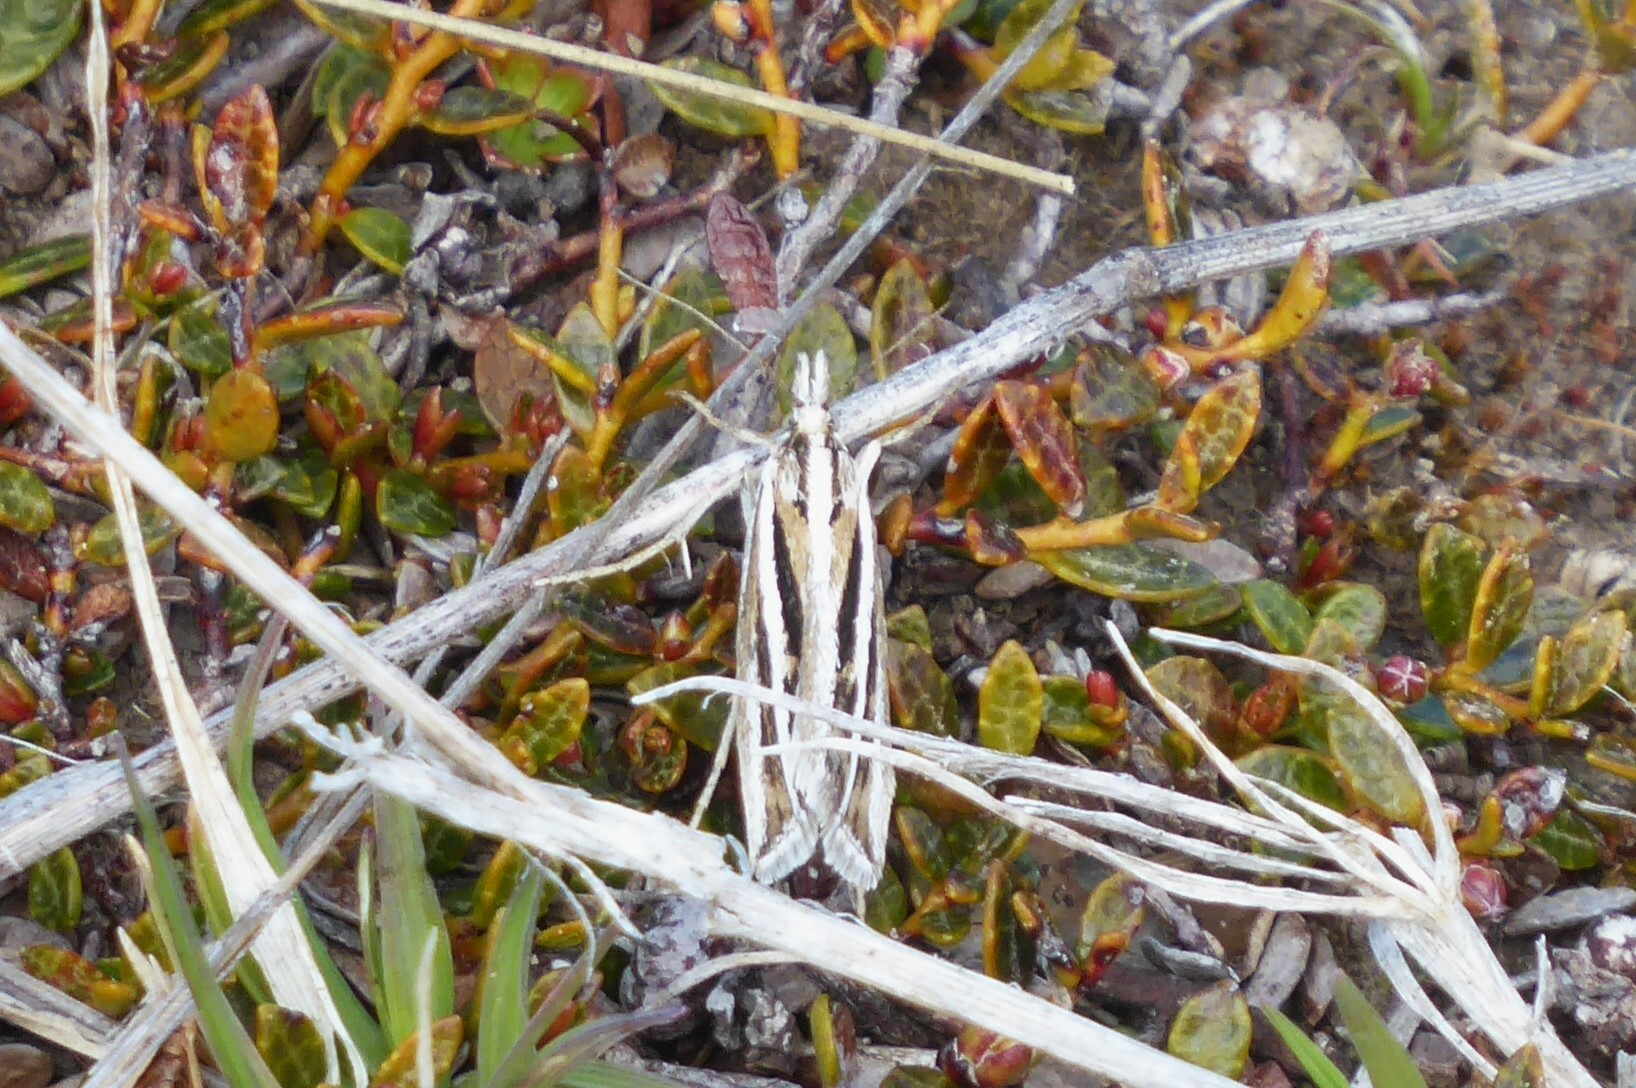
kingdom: Animalia
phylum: Arthropoda
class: Insecta
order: Lepidoptera
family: Crambidae
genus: Orocrambus
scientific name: Orocrambus corruptus
